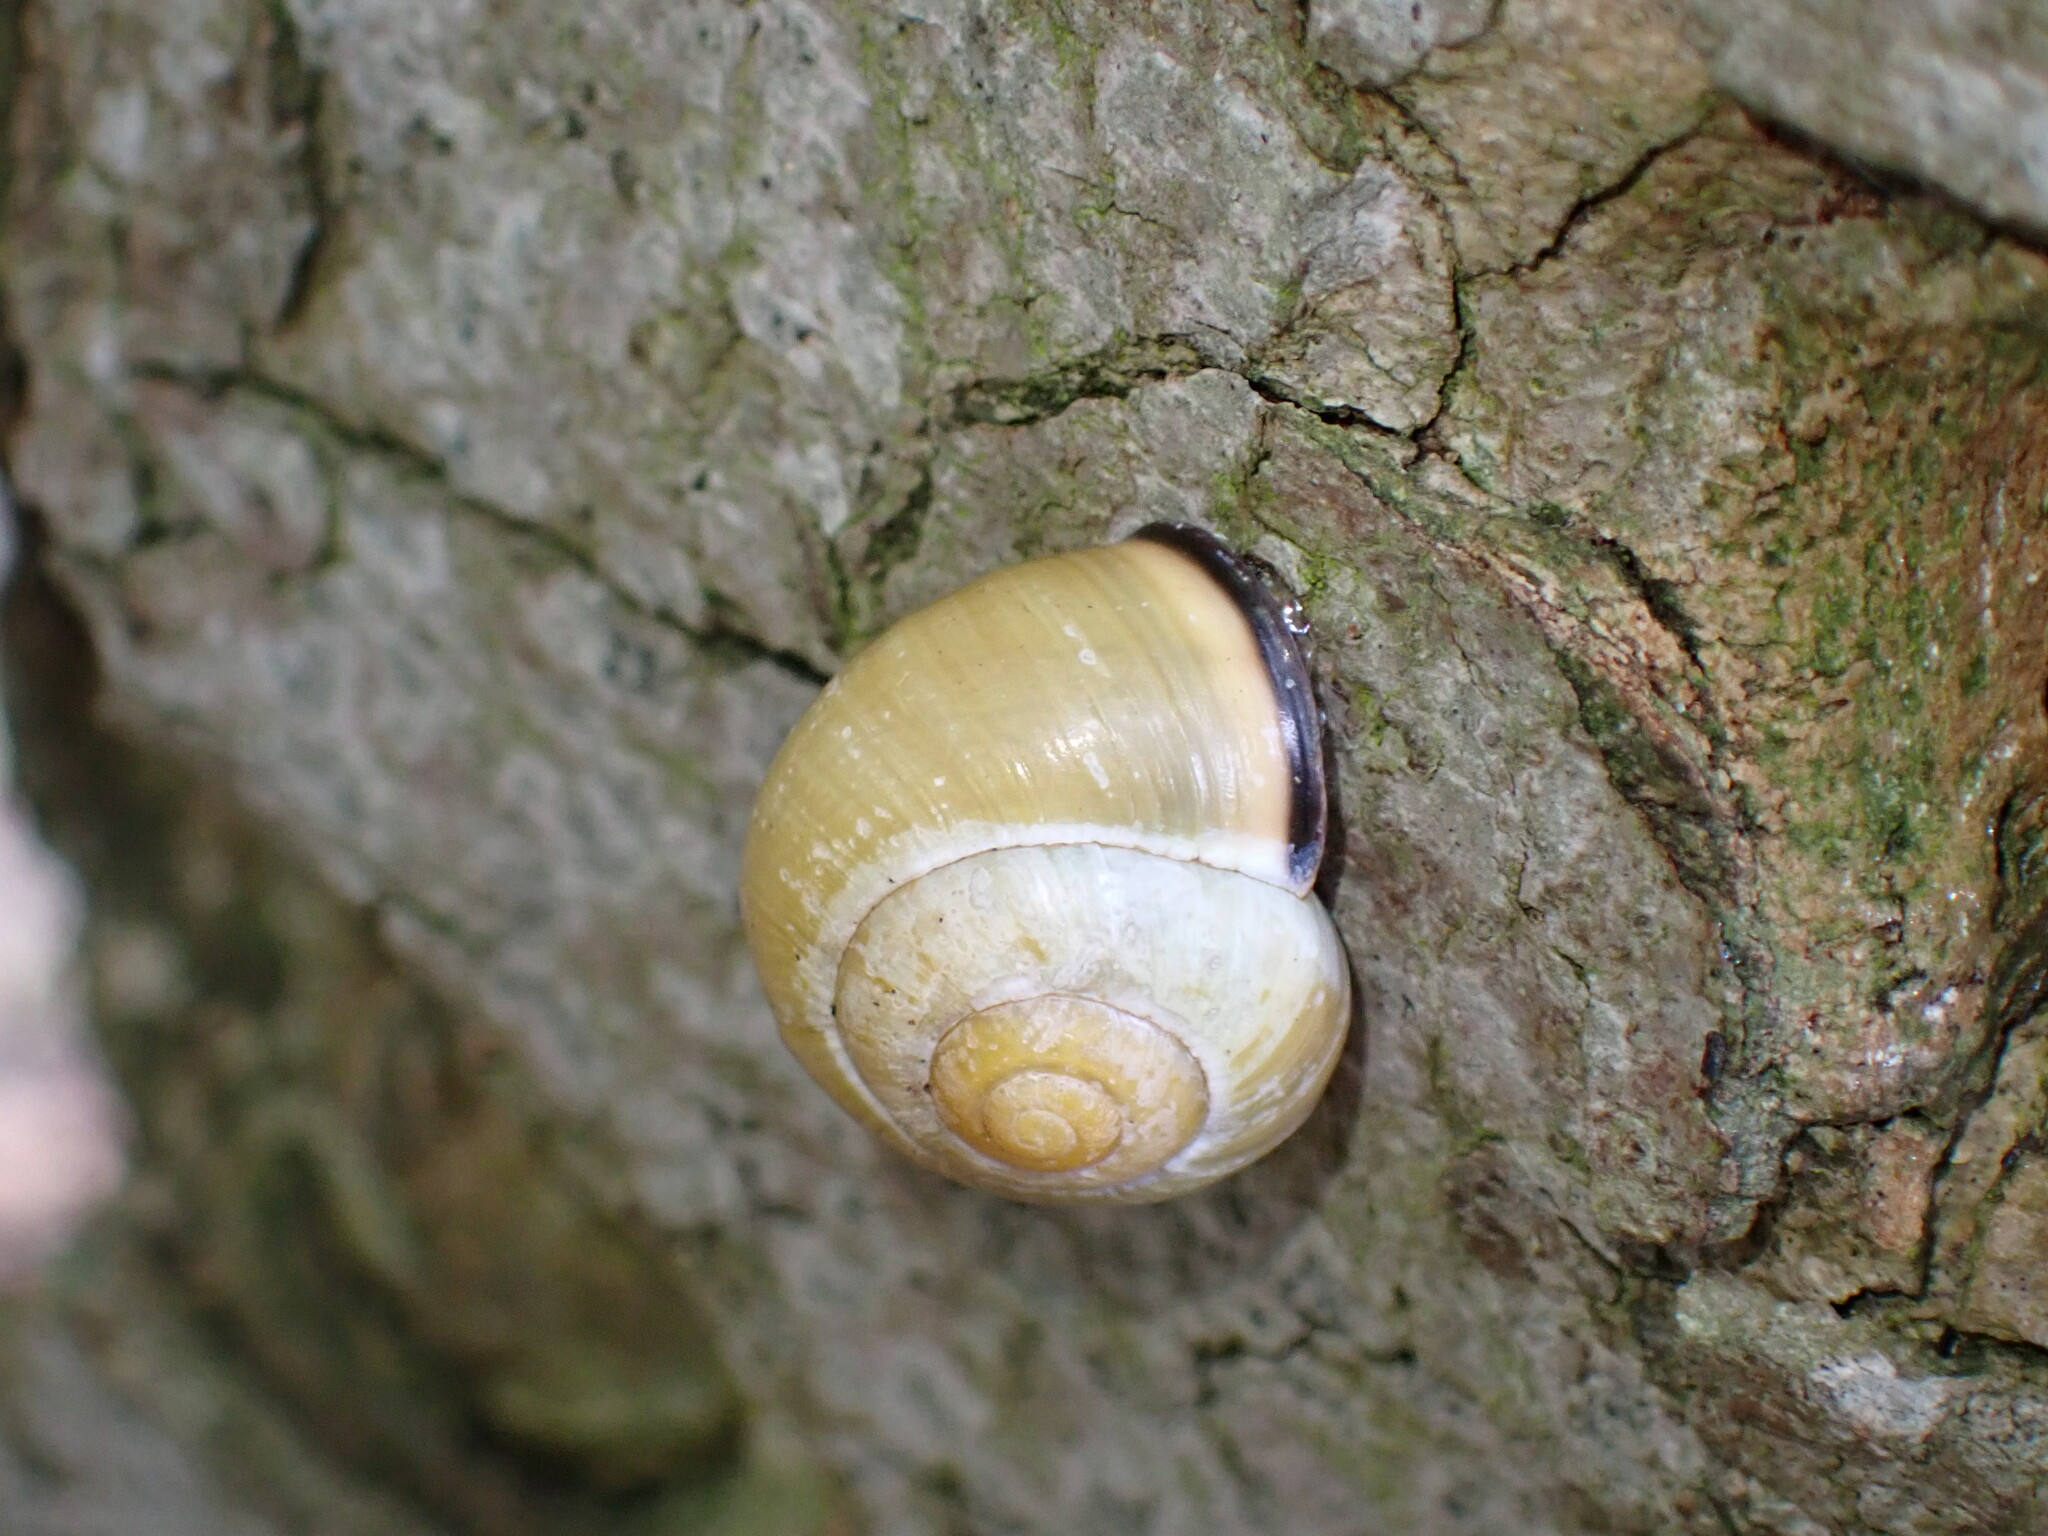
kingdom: Animalia
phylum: Mollusca
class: Gastropoda
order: Stylommatophora
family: Helicidae
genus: Cepaea
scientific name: Cepaea nemoralis
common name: Grovesnail
